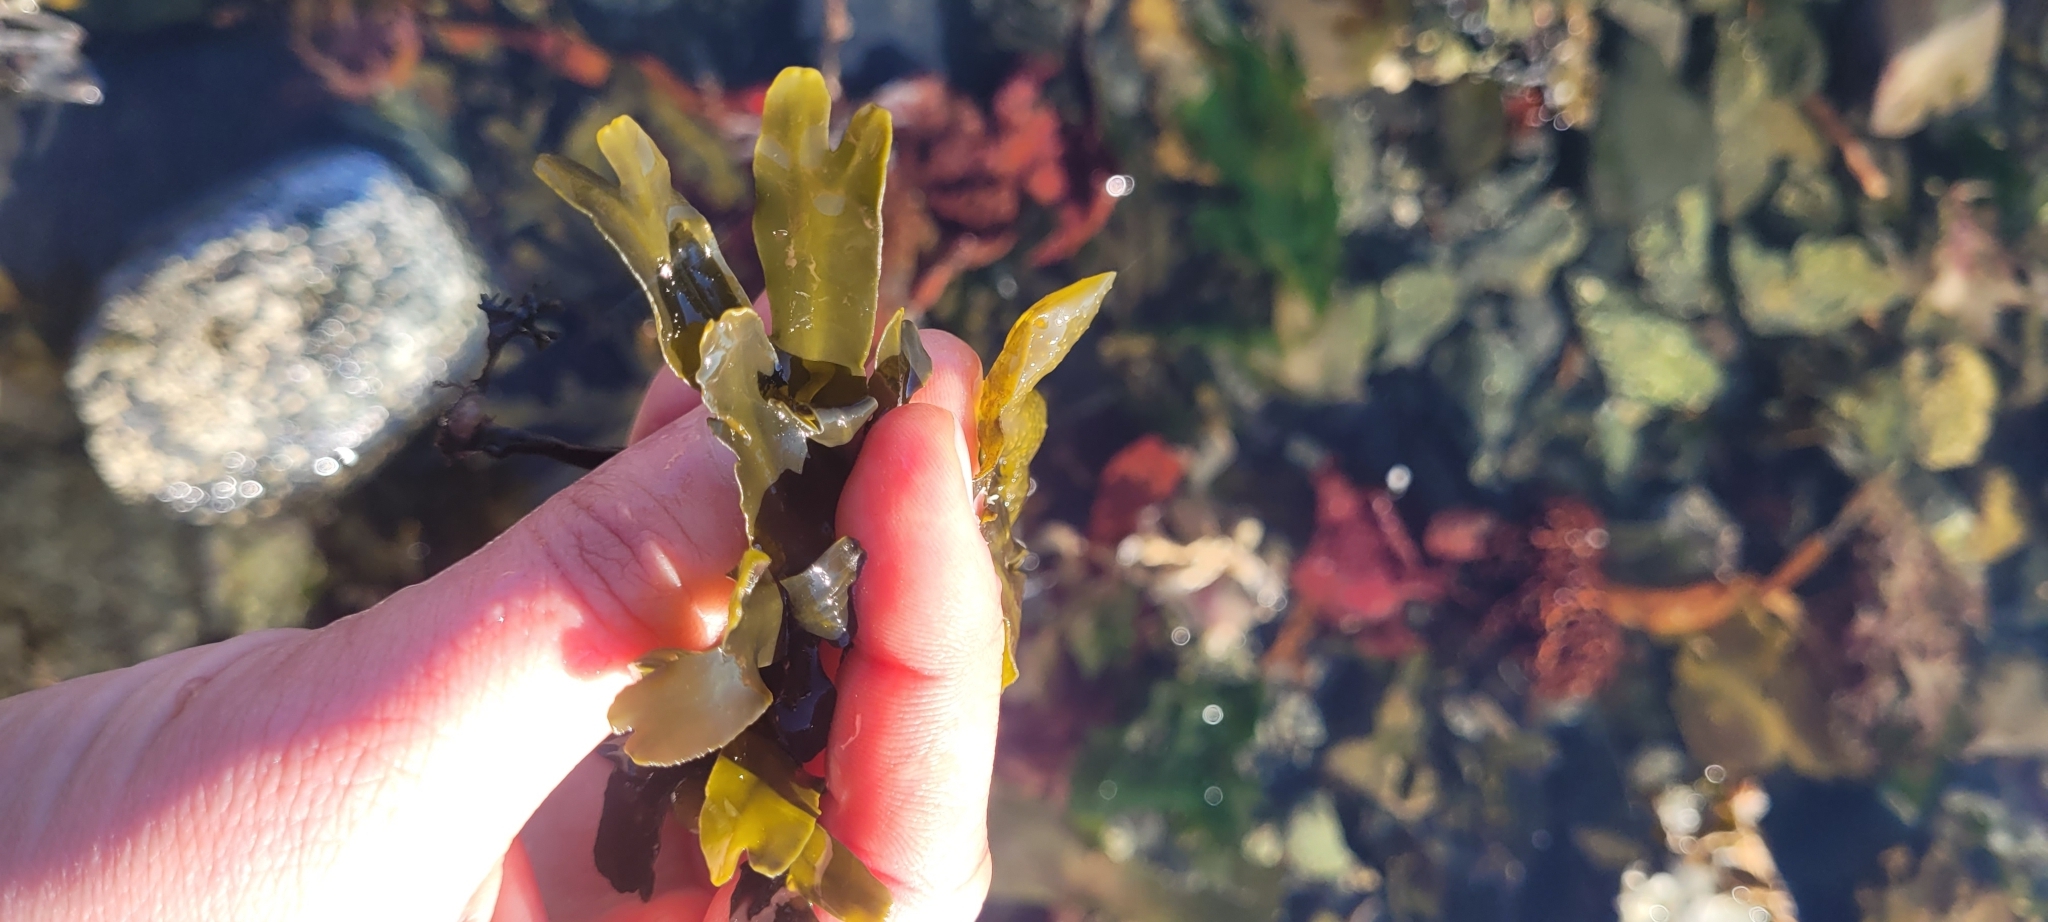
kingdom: Chromista
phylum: Ochrophyta
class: Phaeophyceae
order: Fucales
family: Fucaceae
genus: Fucus
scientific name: Fucus distichus
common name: Rockweed
